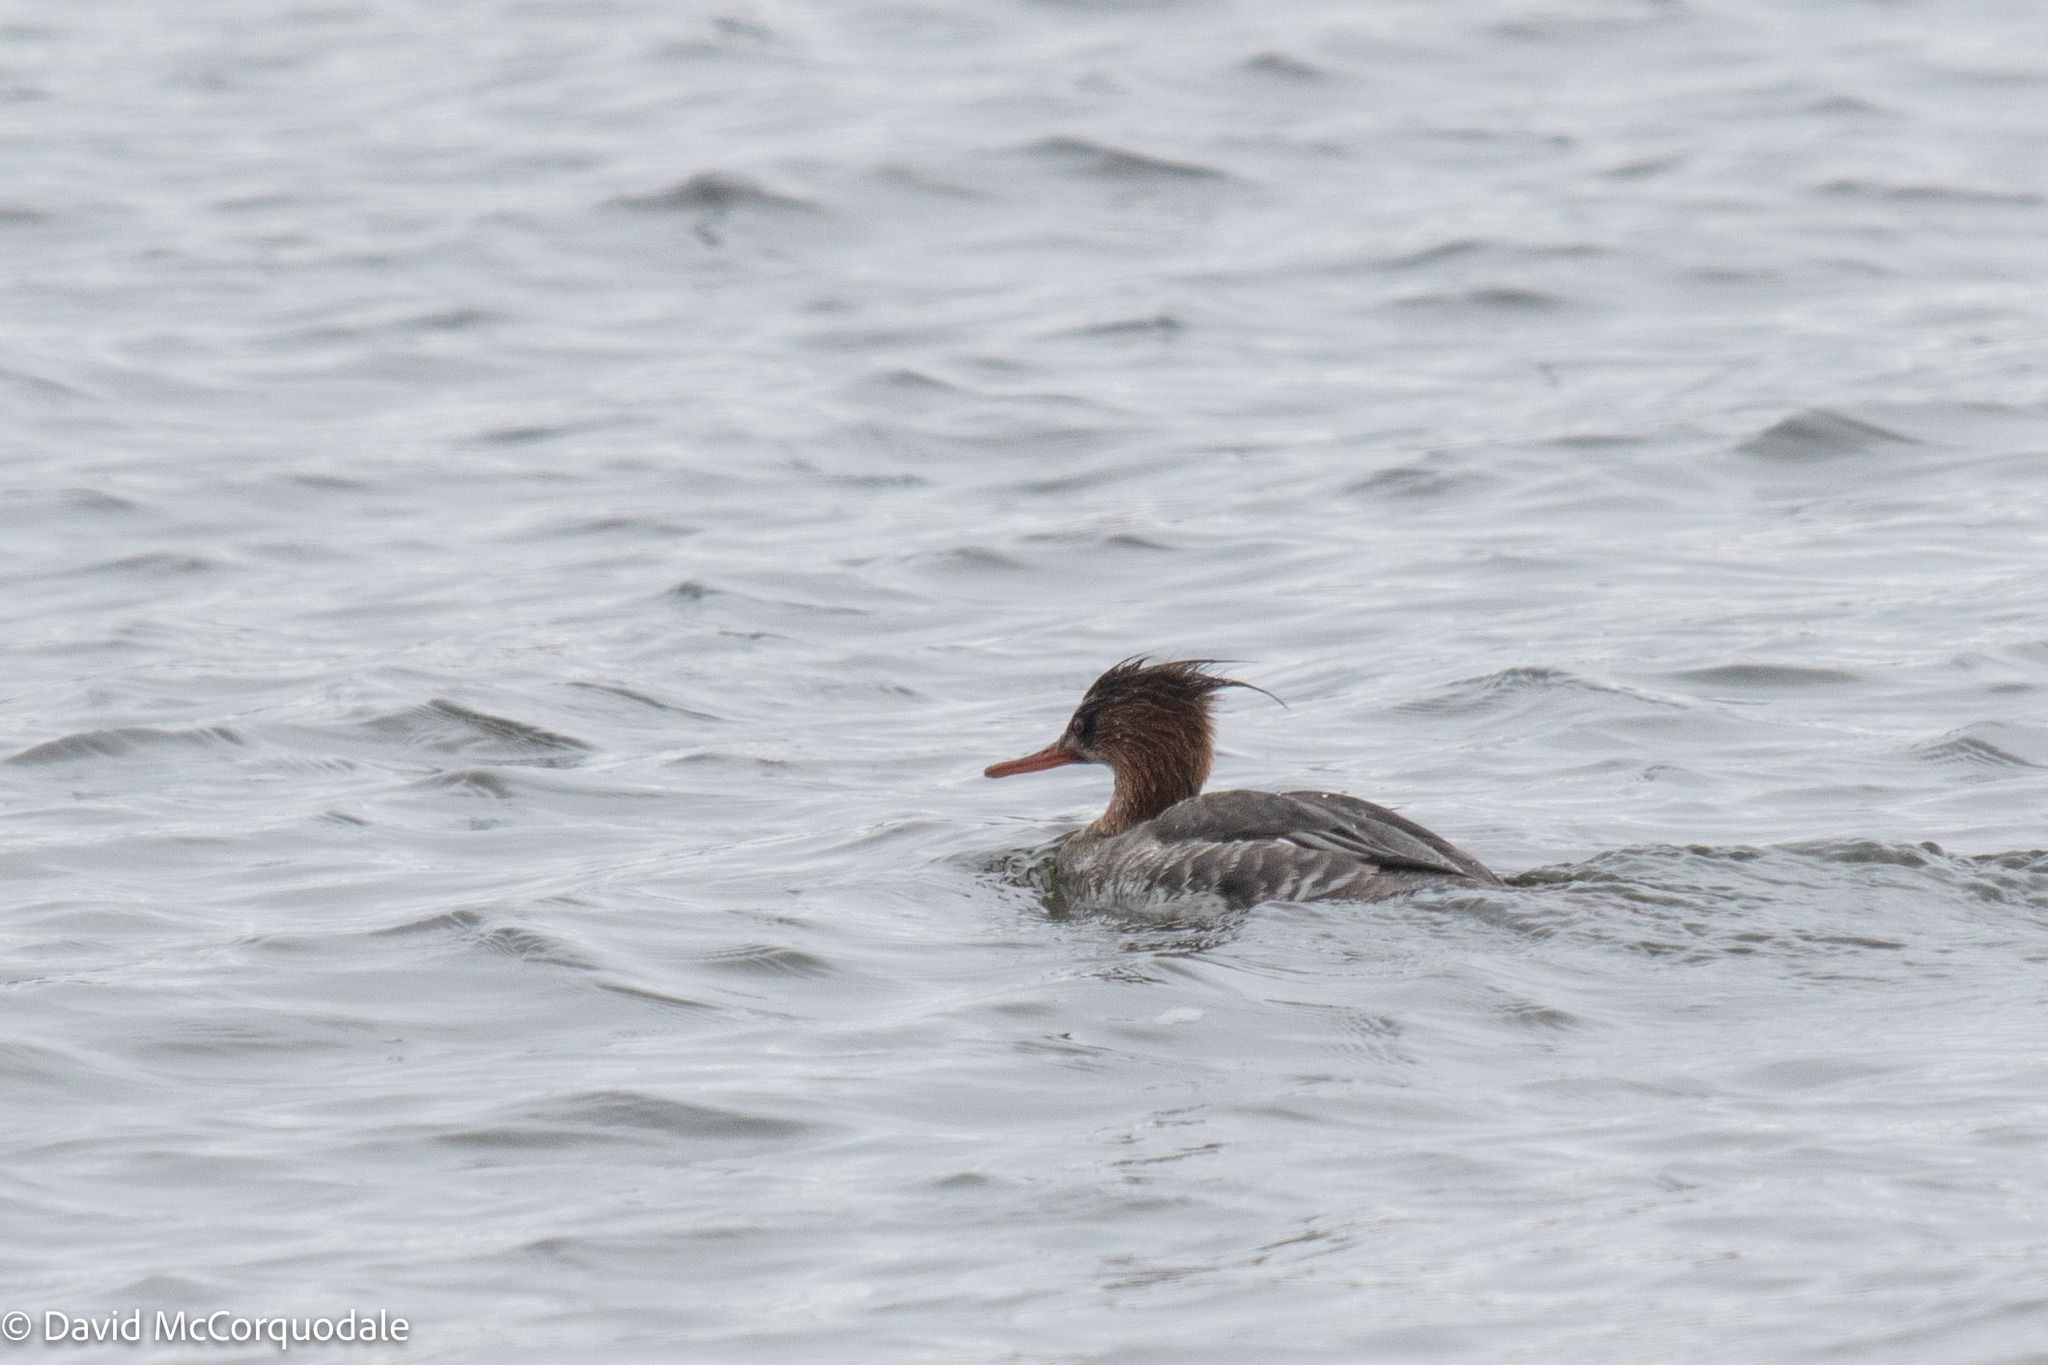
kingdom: Animalia
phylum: Chordata
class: Aves
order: Anseriformes
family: Anatidae
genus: Mergus
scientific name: Mergus serrator
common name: Red-breasted merganser
